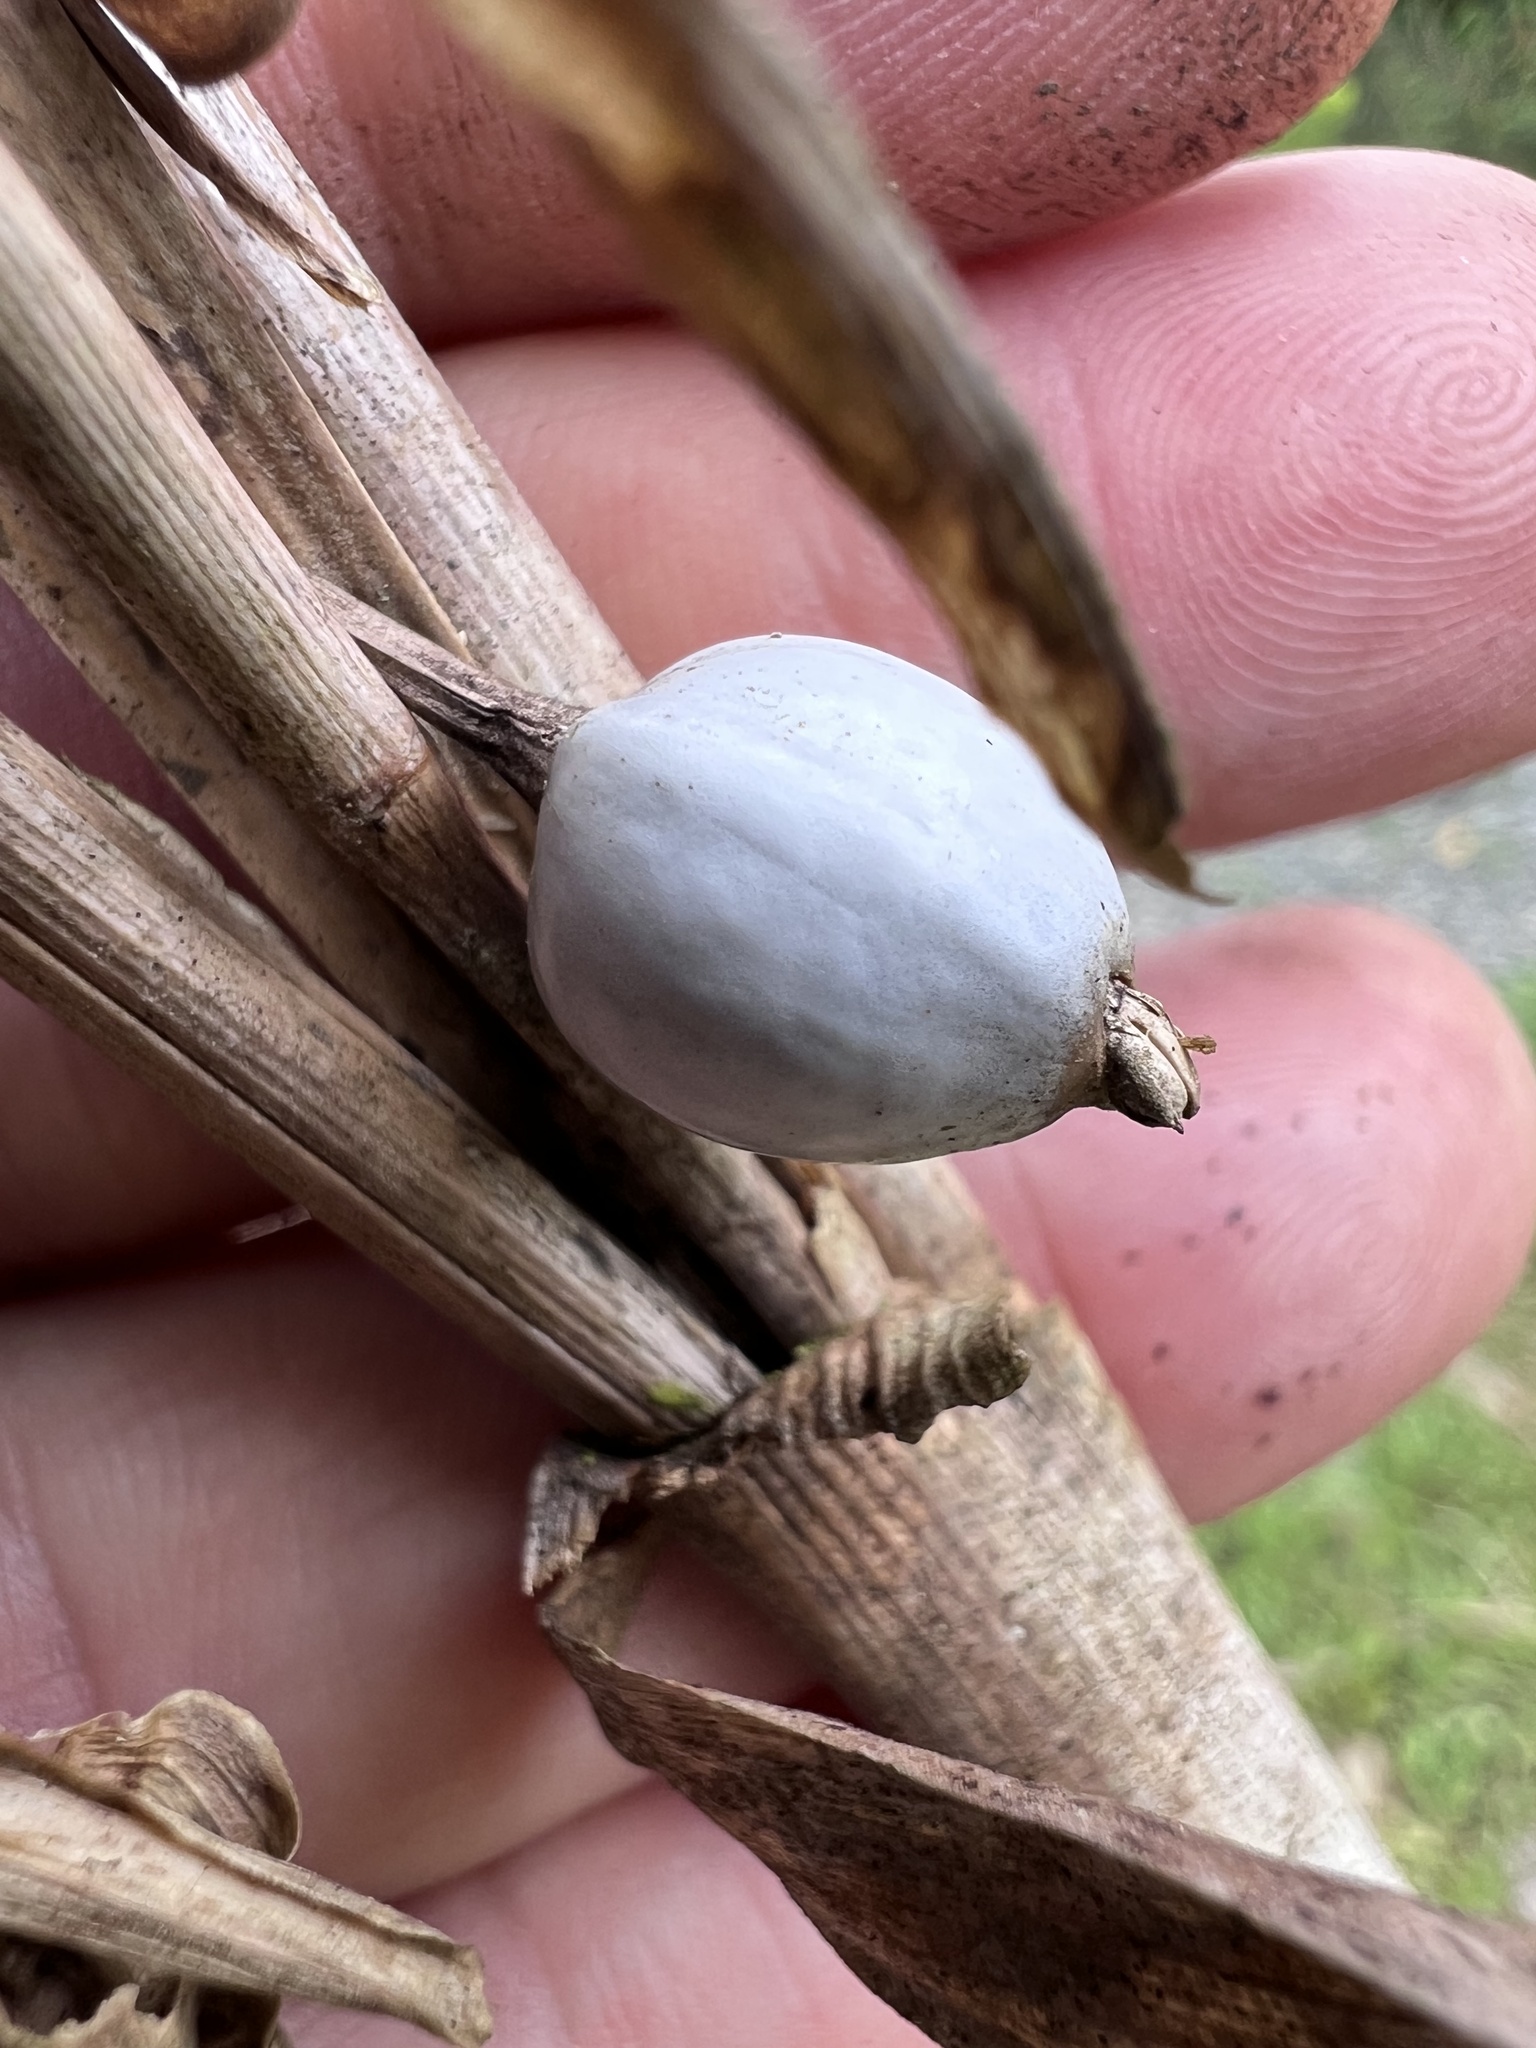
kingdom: Plantae
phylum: Tracheophyta
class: Liliopsida
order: Poales
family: Poaceae
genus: Coix
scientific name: Coix lacryma-jobi
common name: Job's tears
